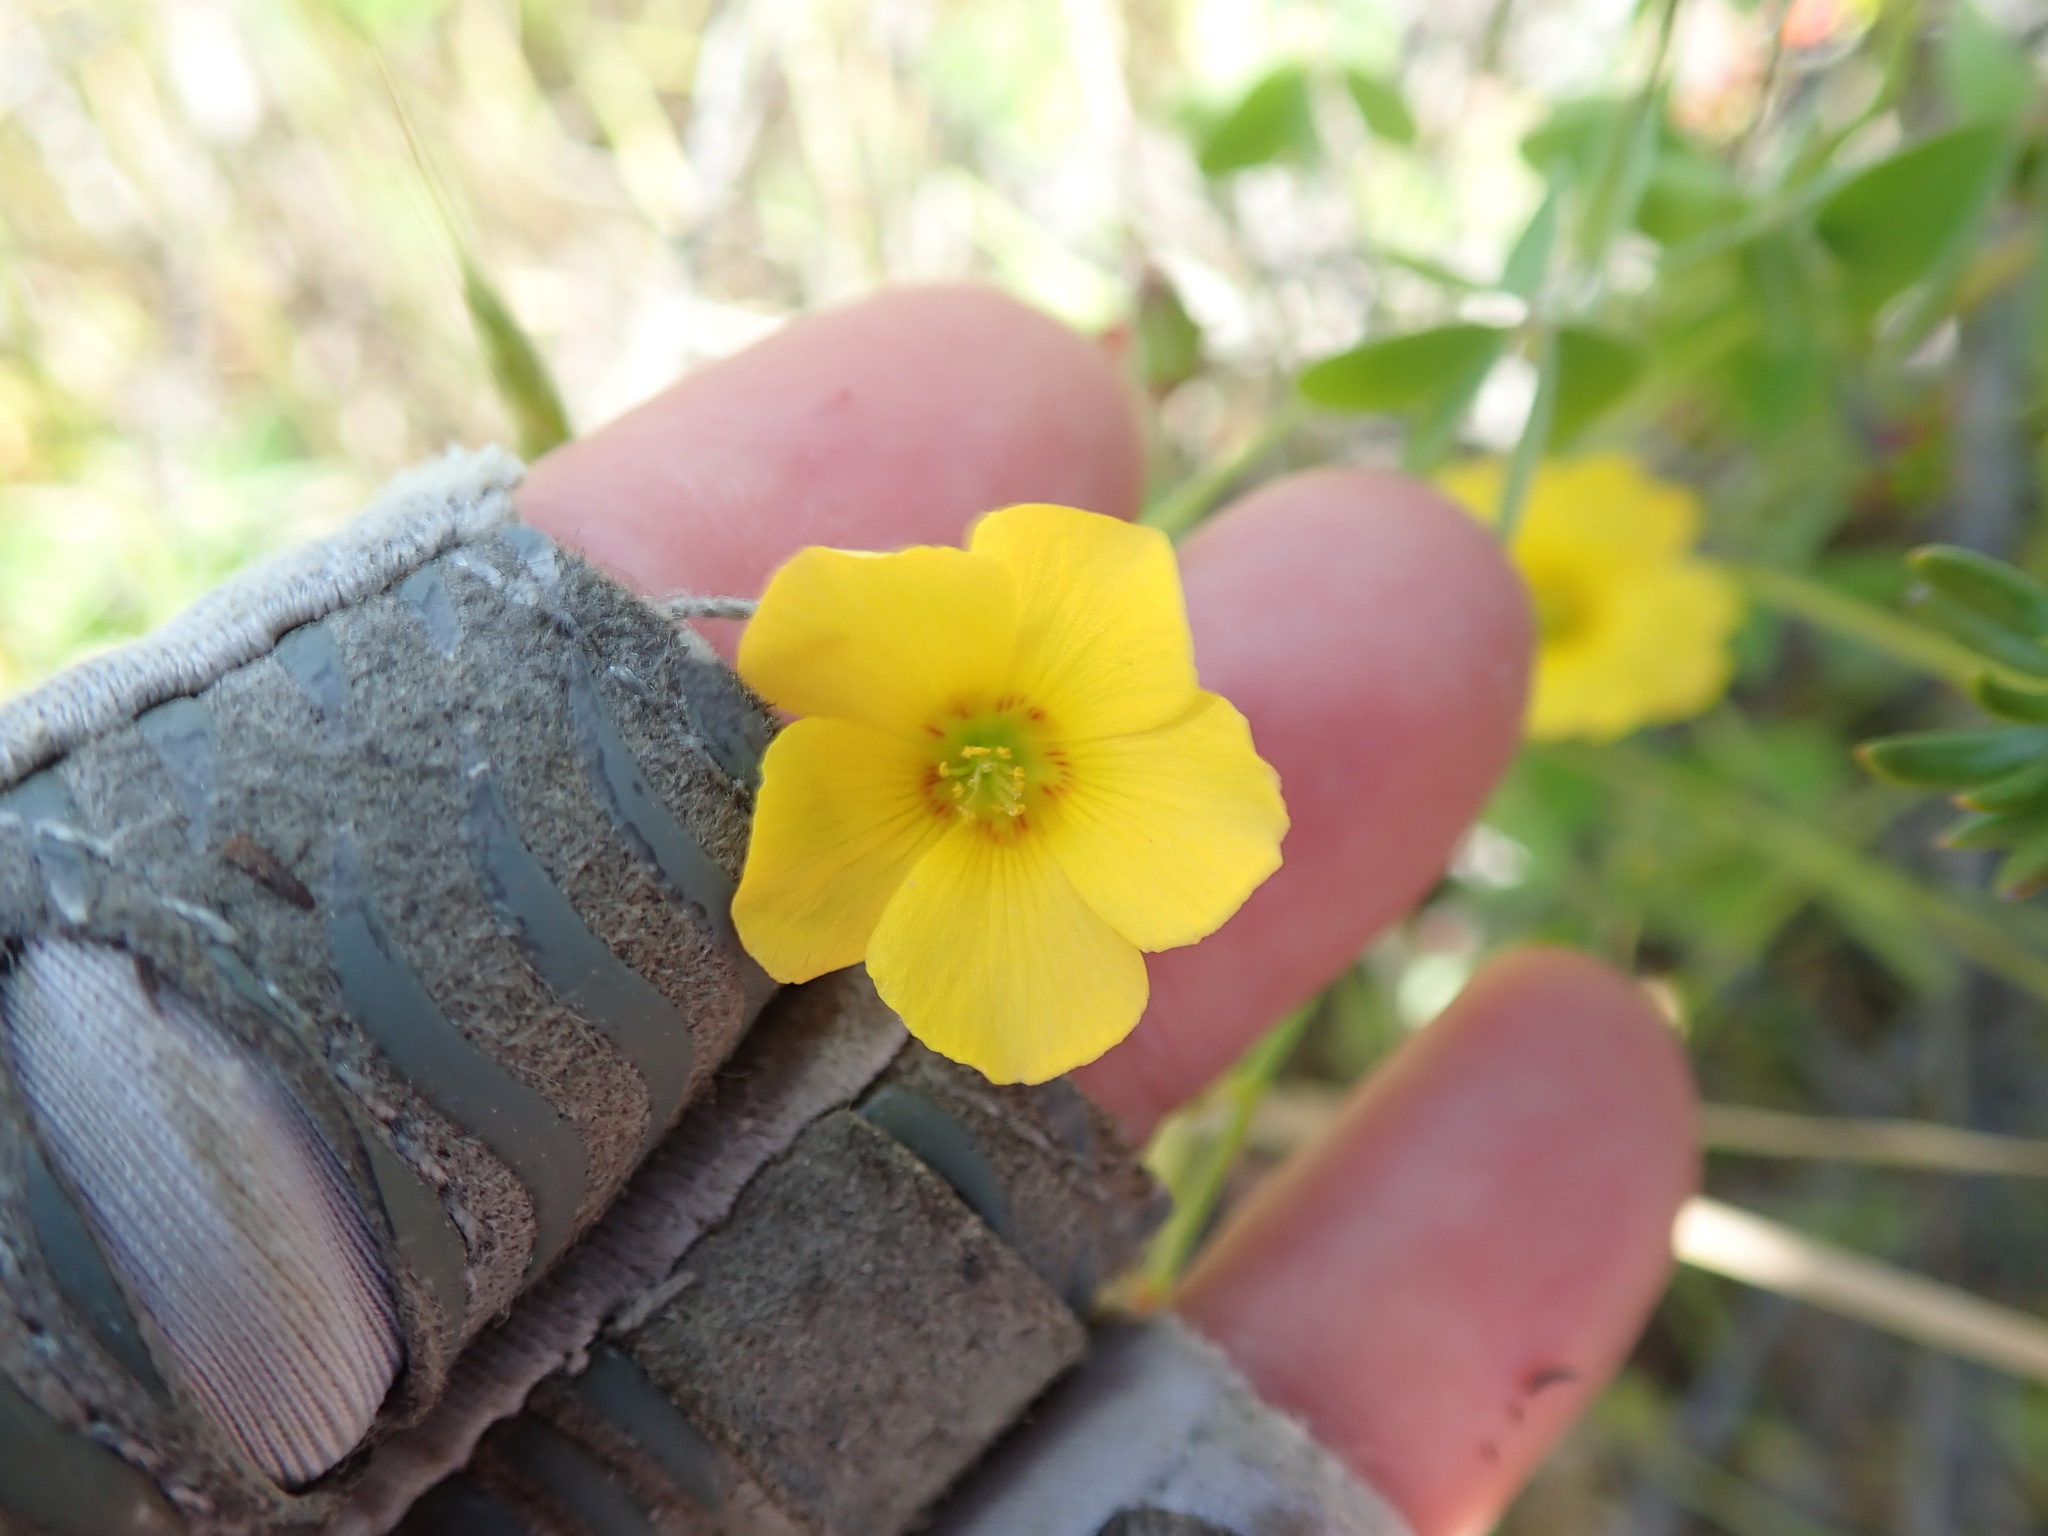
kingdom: Plantae
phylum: Tracheophyta
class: Magnoliopsida
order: Oxalidales
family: Oxalidaceae
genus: Oxalis
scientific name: Oxalis californica
